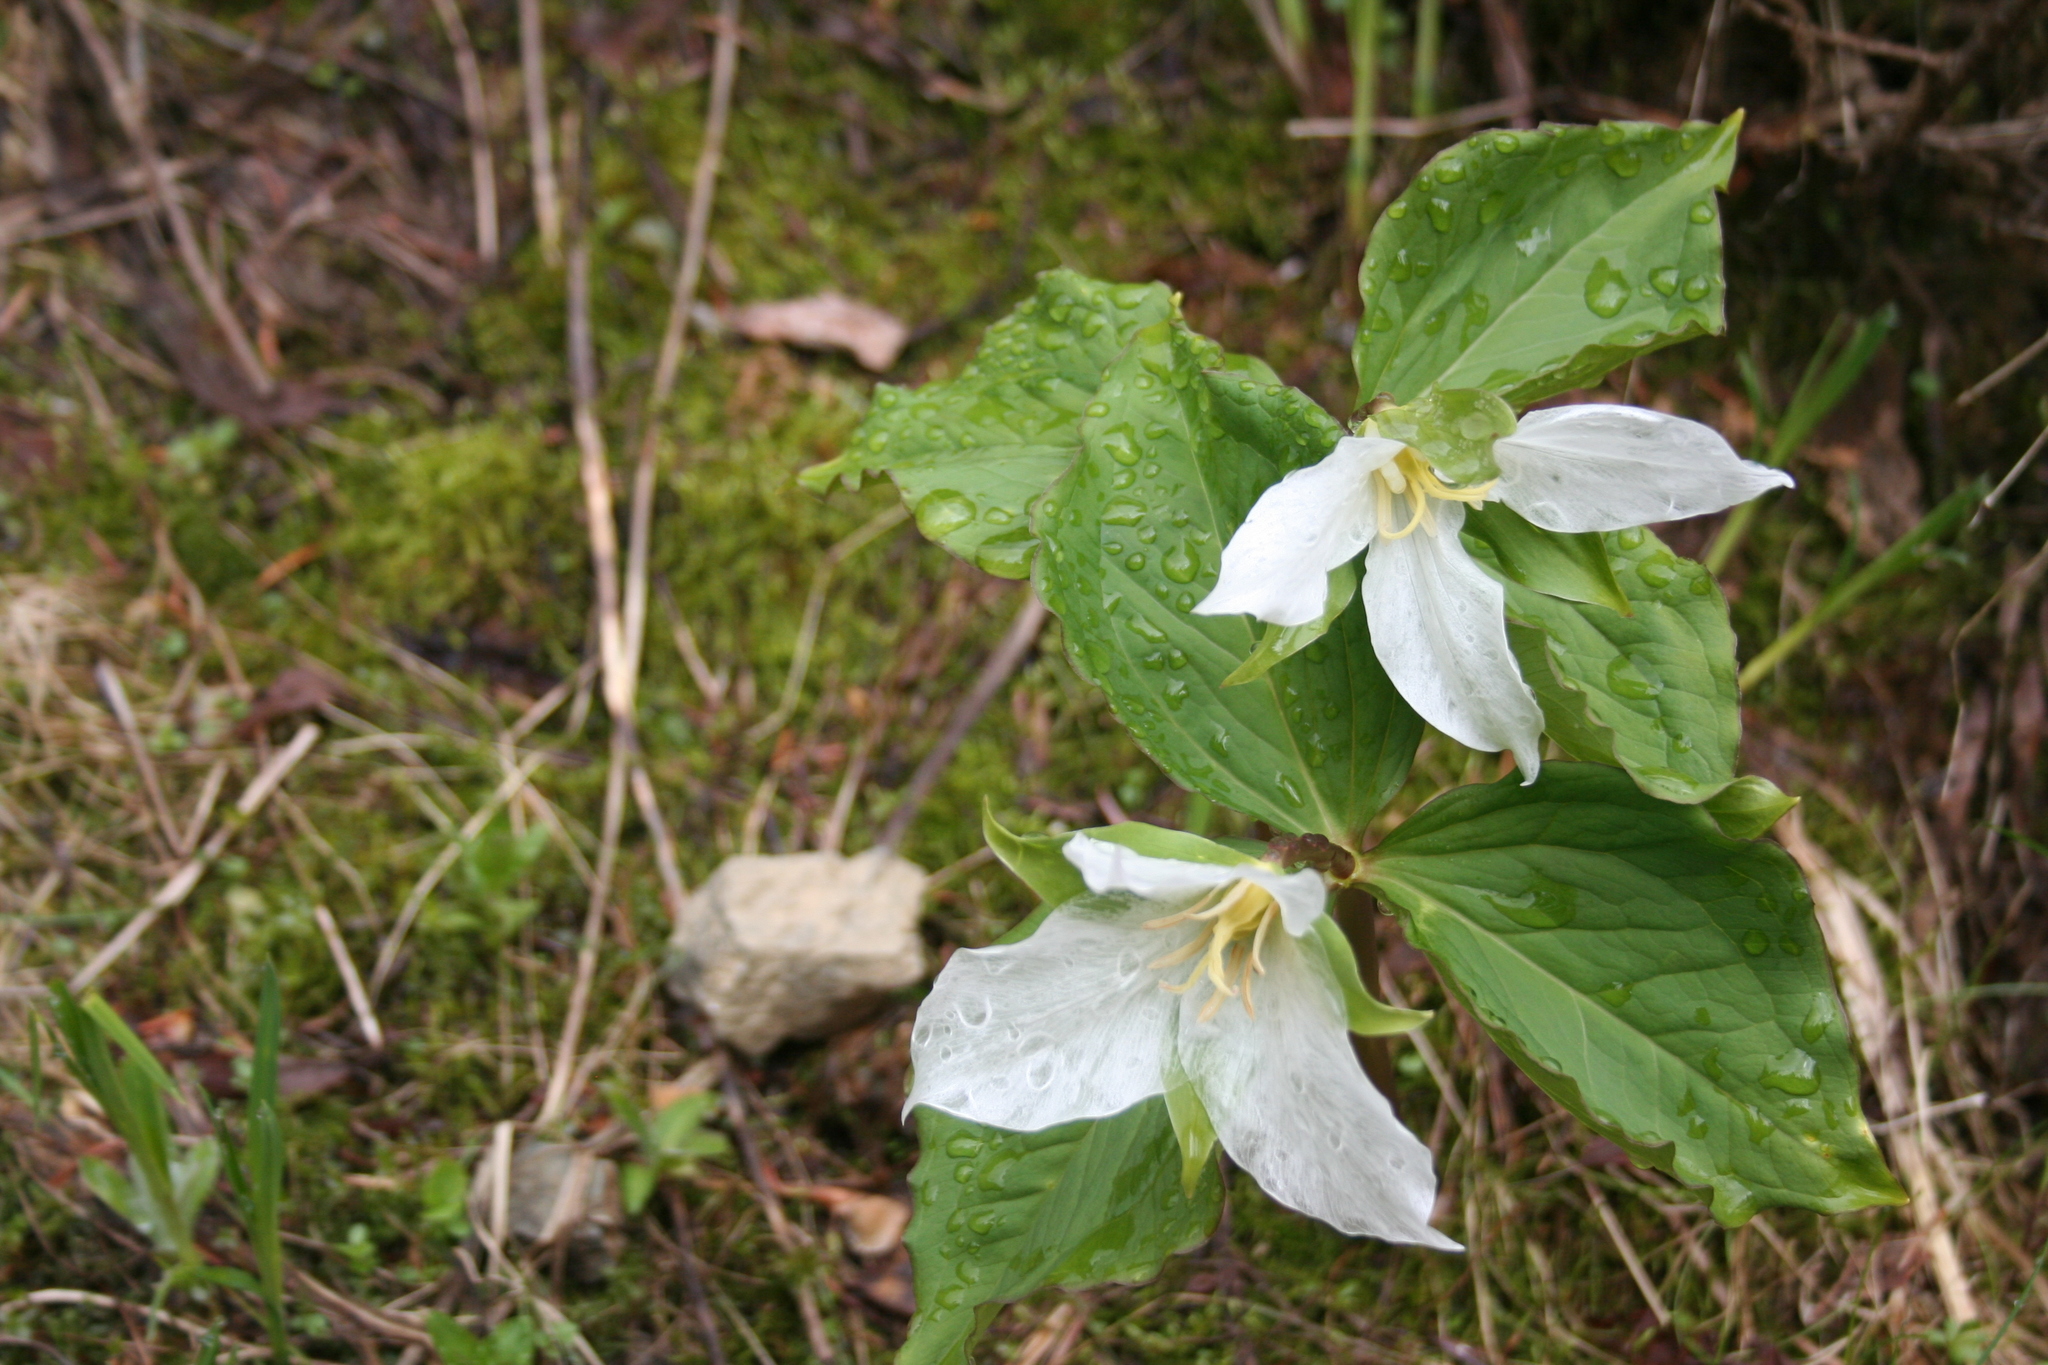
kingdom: Plantae
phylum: Tracheophyta
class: Liliopsida
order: Liliales
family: Melanthiaceae
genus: Trillium
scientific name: Trillium ovatum
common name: Pacific trillium
